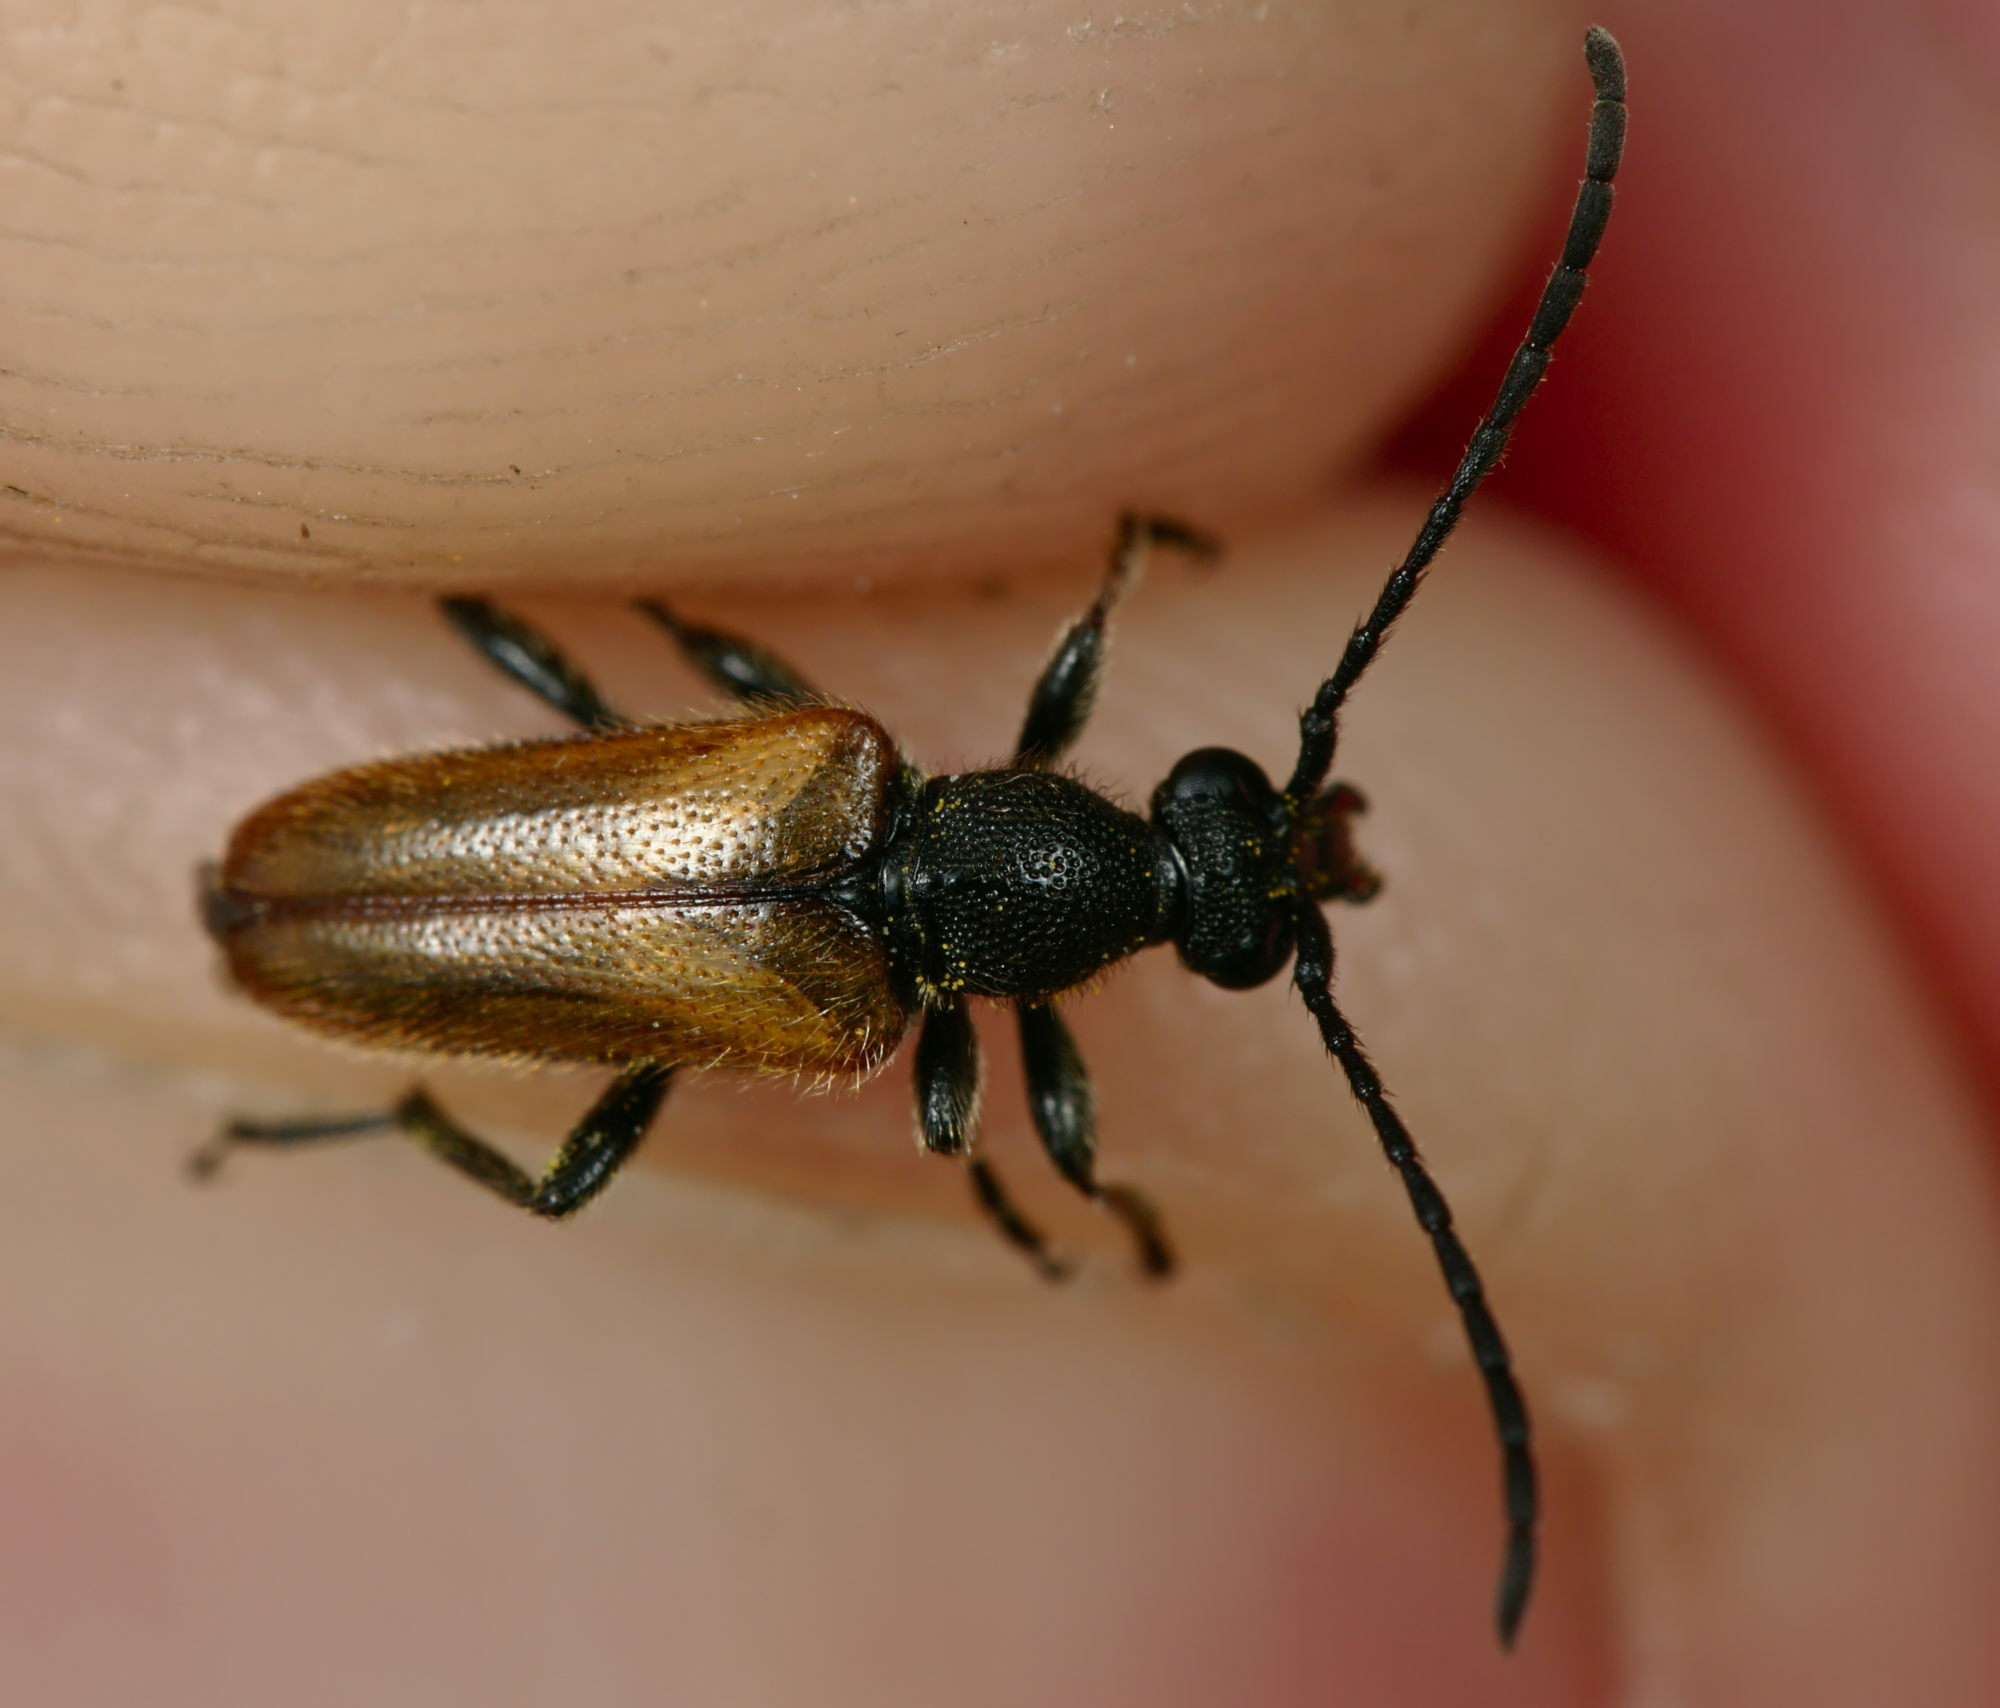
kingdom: Animalia
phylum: Arthropoda
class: Insecta
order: Coleoptera
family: Cerambycidae
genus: Pseudovadonia
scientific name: Pseudovadonia livida
